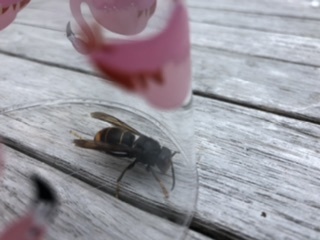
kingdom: Animalia
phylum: Arthropoda
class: Insecta
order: Hymenoptera
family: Vespidae
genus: Vespa
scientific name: Vespa velutina
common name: Asian hornet
